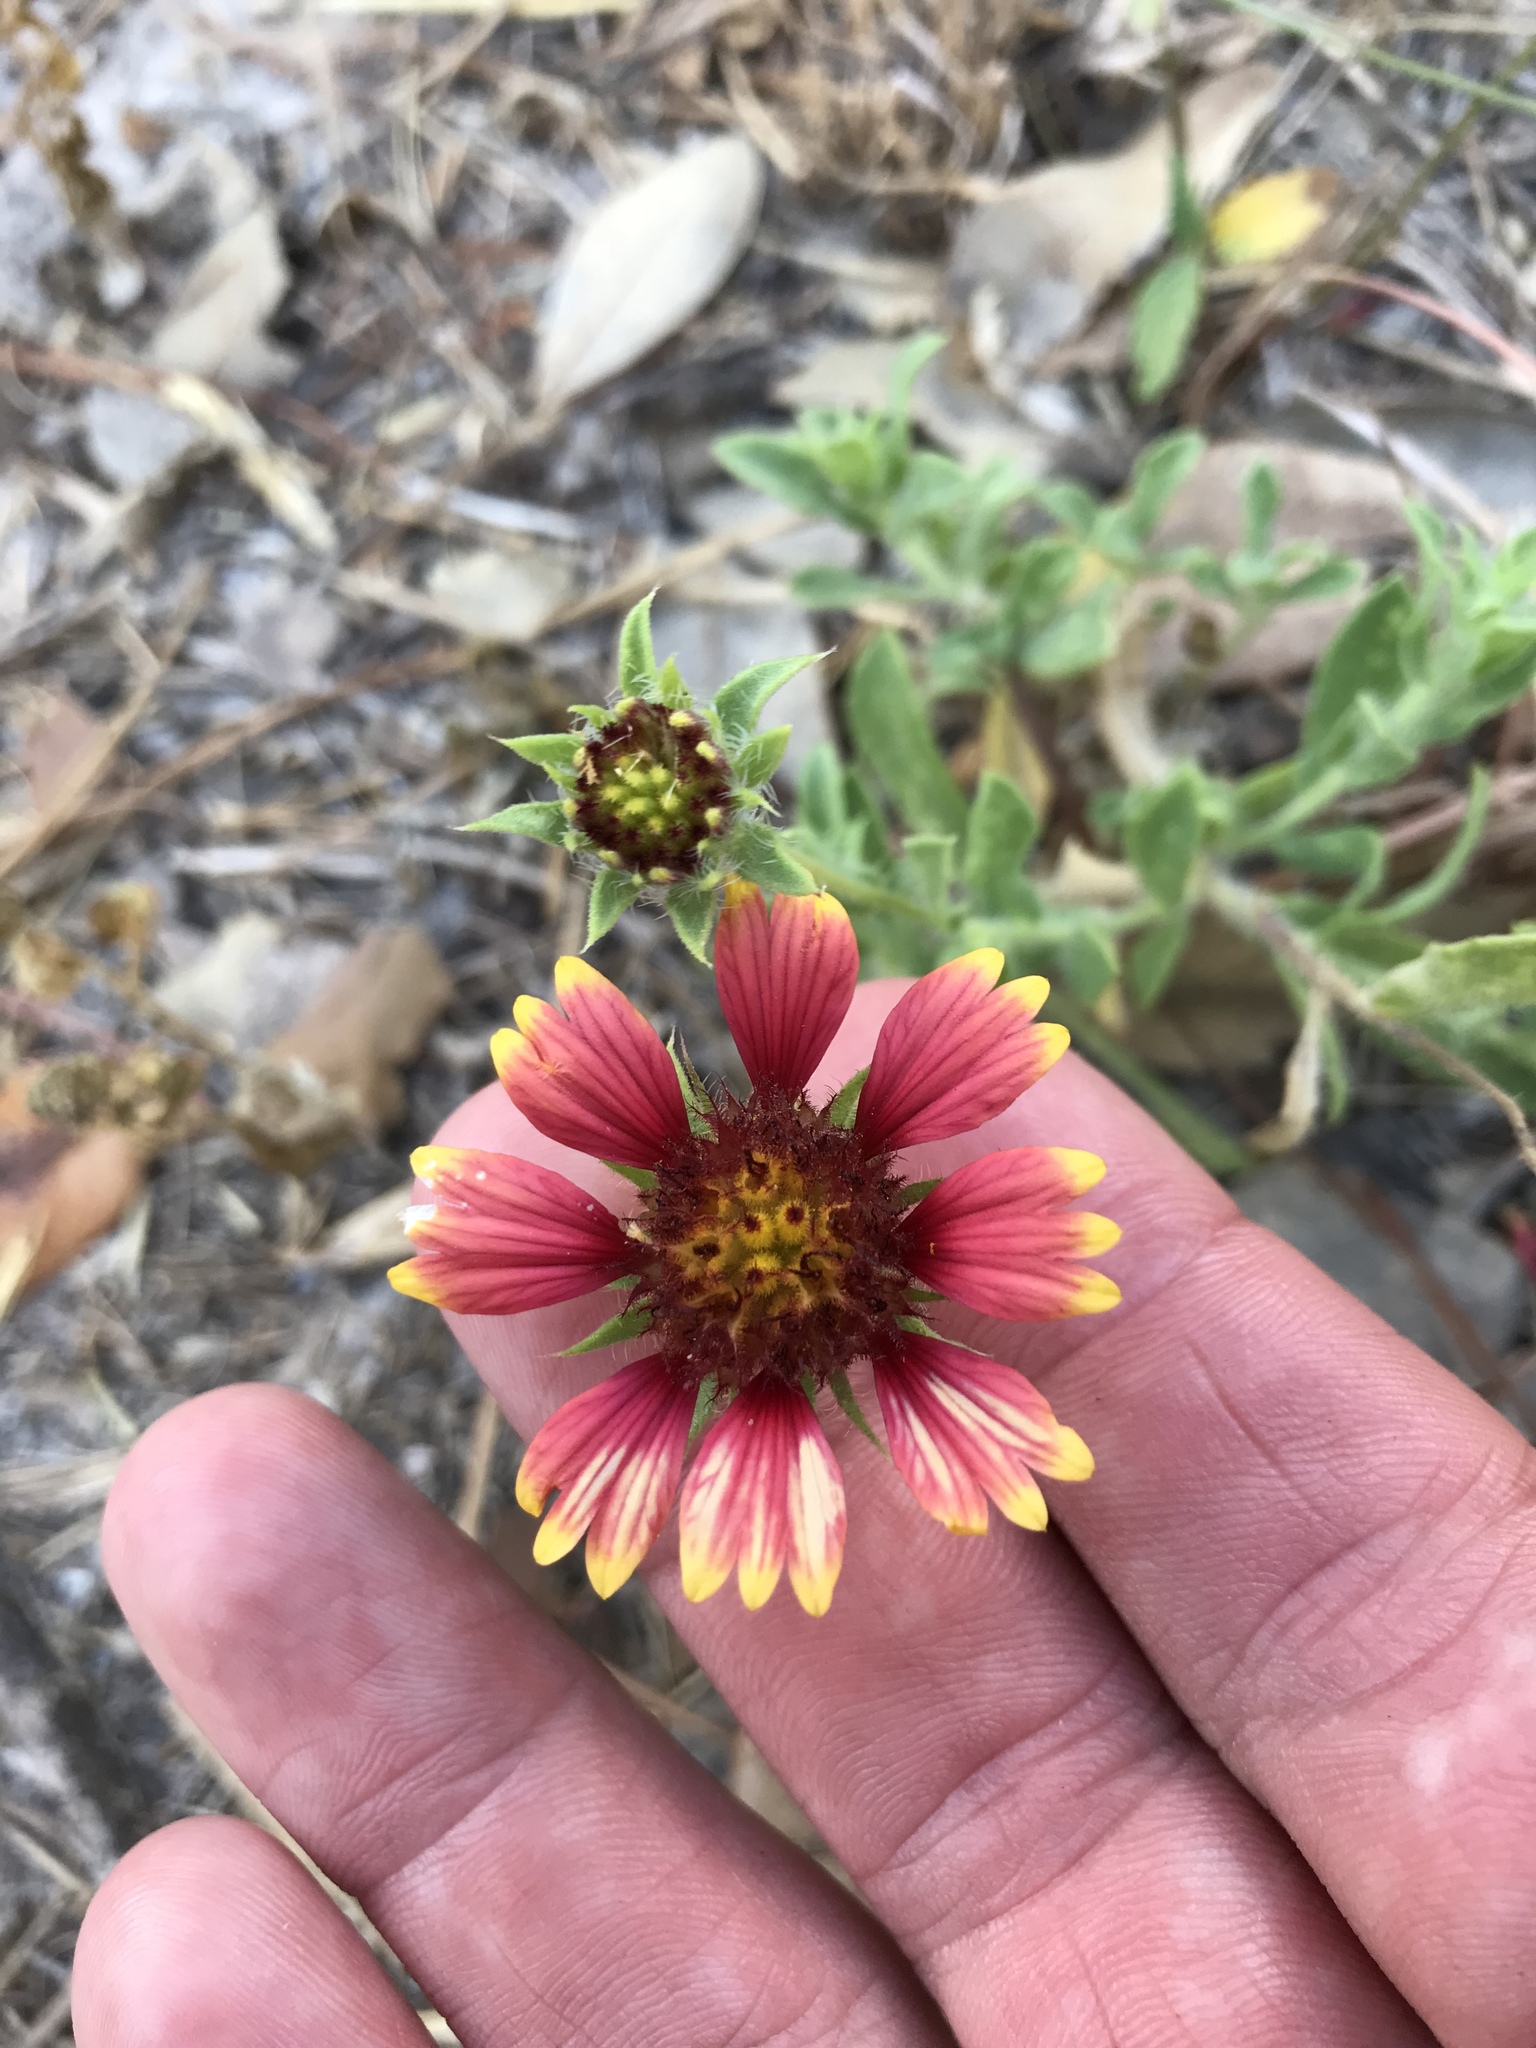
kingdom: Plantae
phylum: Tracheophyta
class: Magnoliopsida
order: Asterales
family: Asteraceae
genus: Gaillardia
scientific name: Gaillardia pulchella
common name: Firewheel
